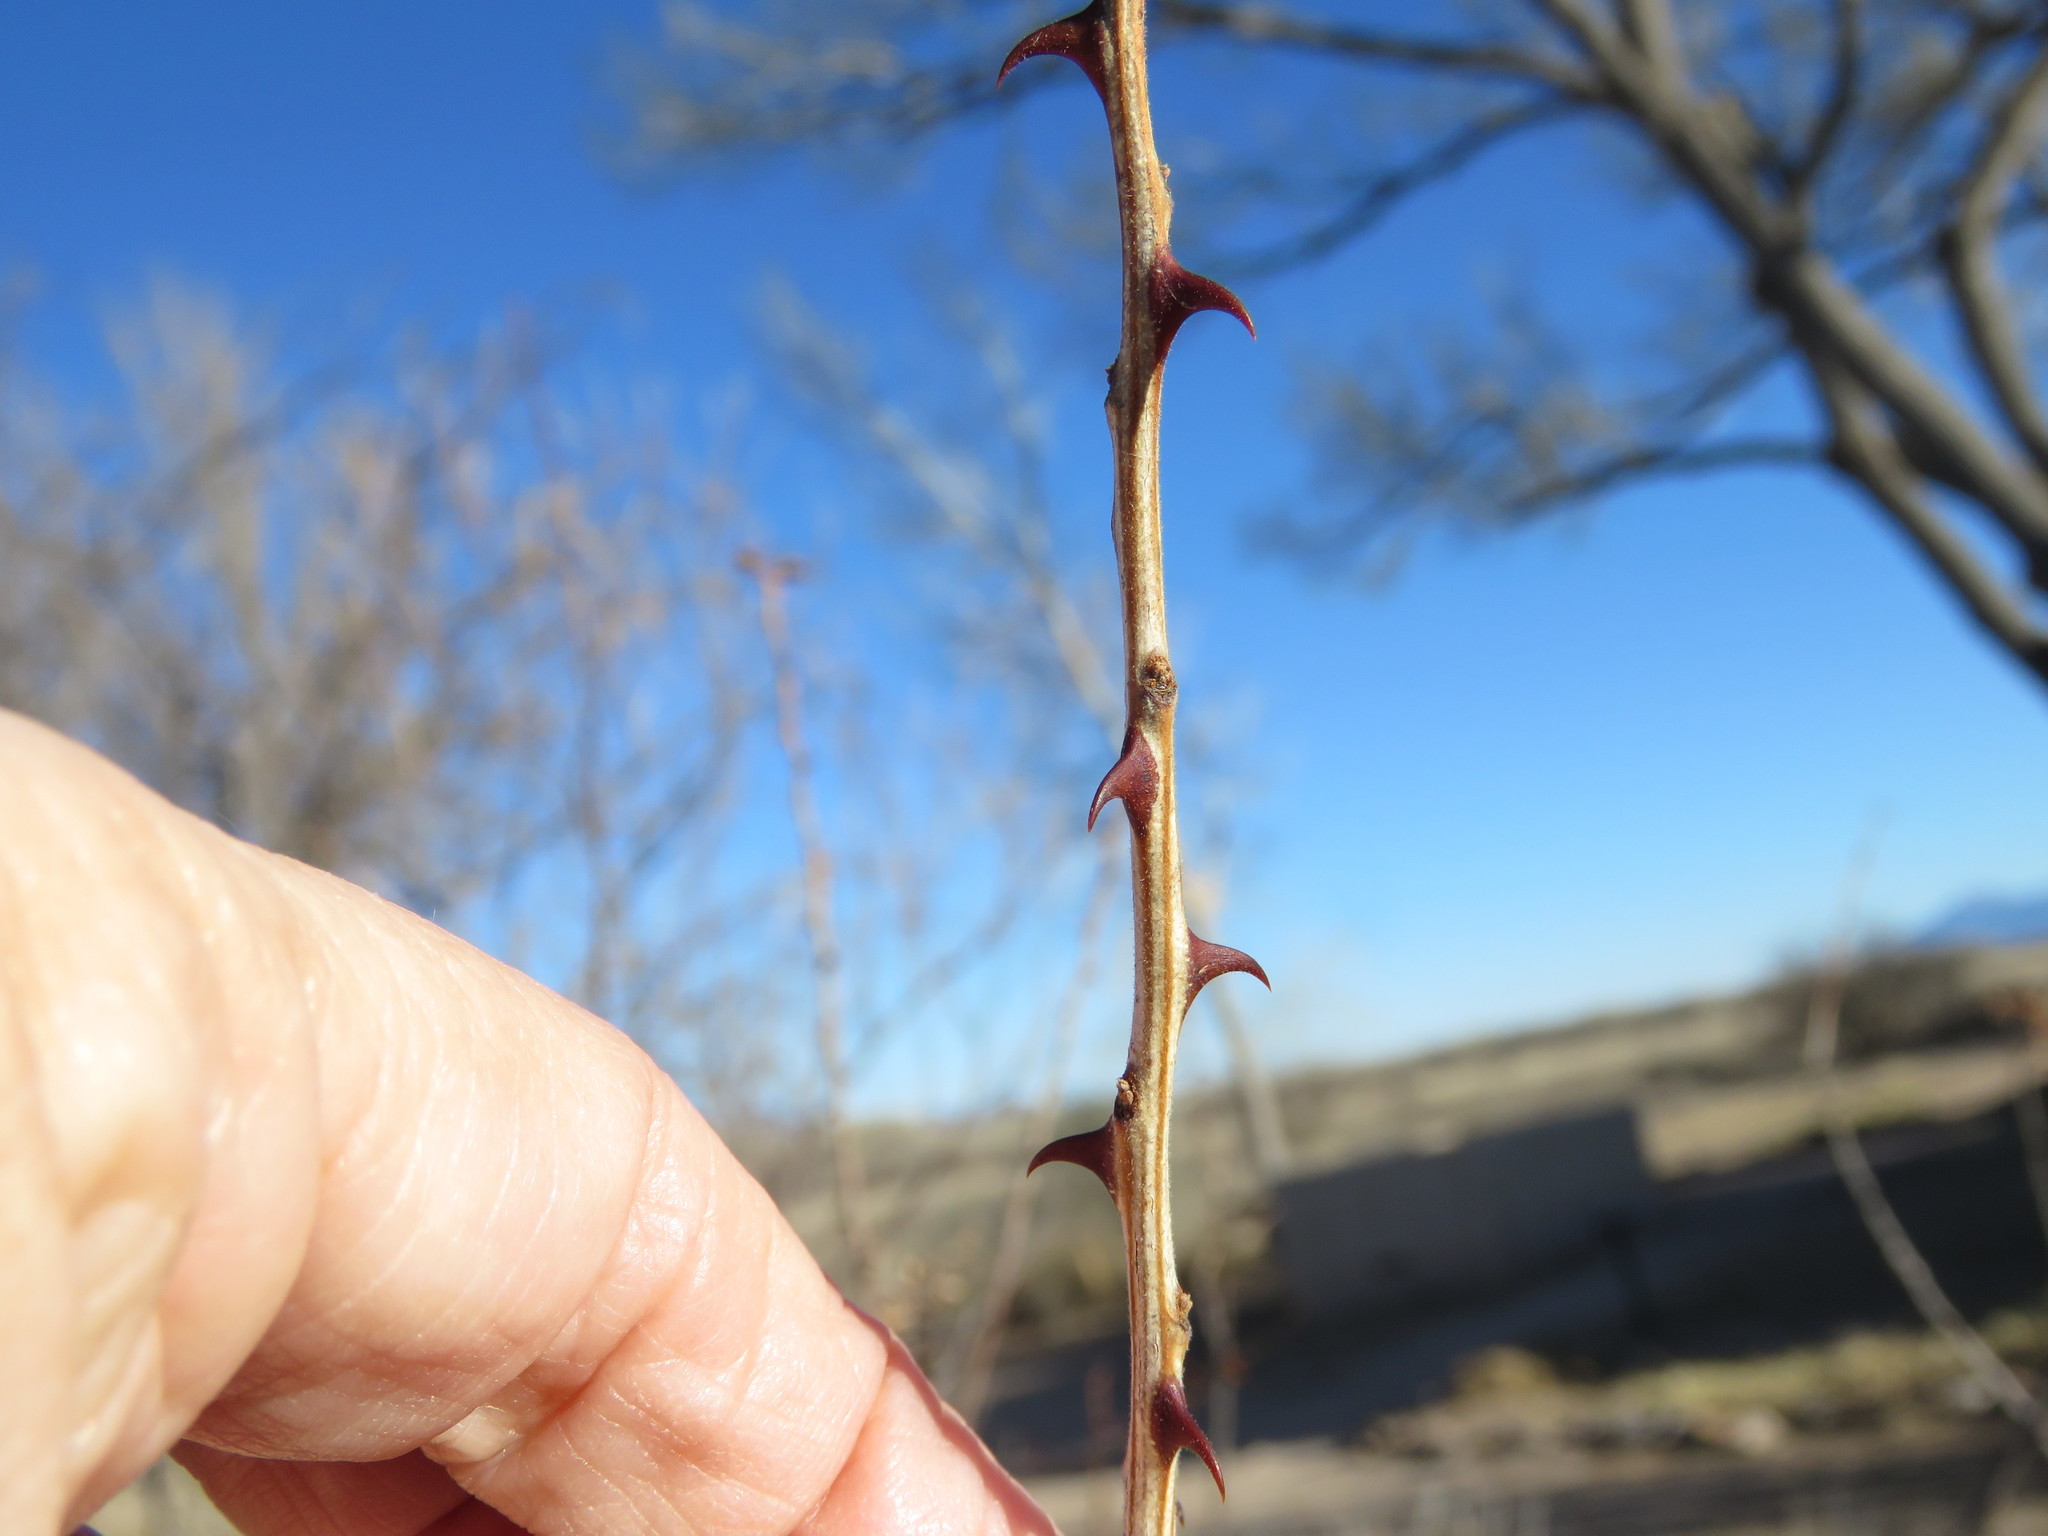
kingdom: Plantae
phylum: Tracheophyta
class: Magnoliopsida
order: Fabales
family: Fabaceae
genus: Senegalia
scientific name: Senegalia greggii
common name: Texas-mimosa
